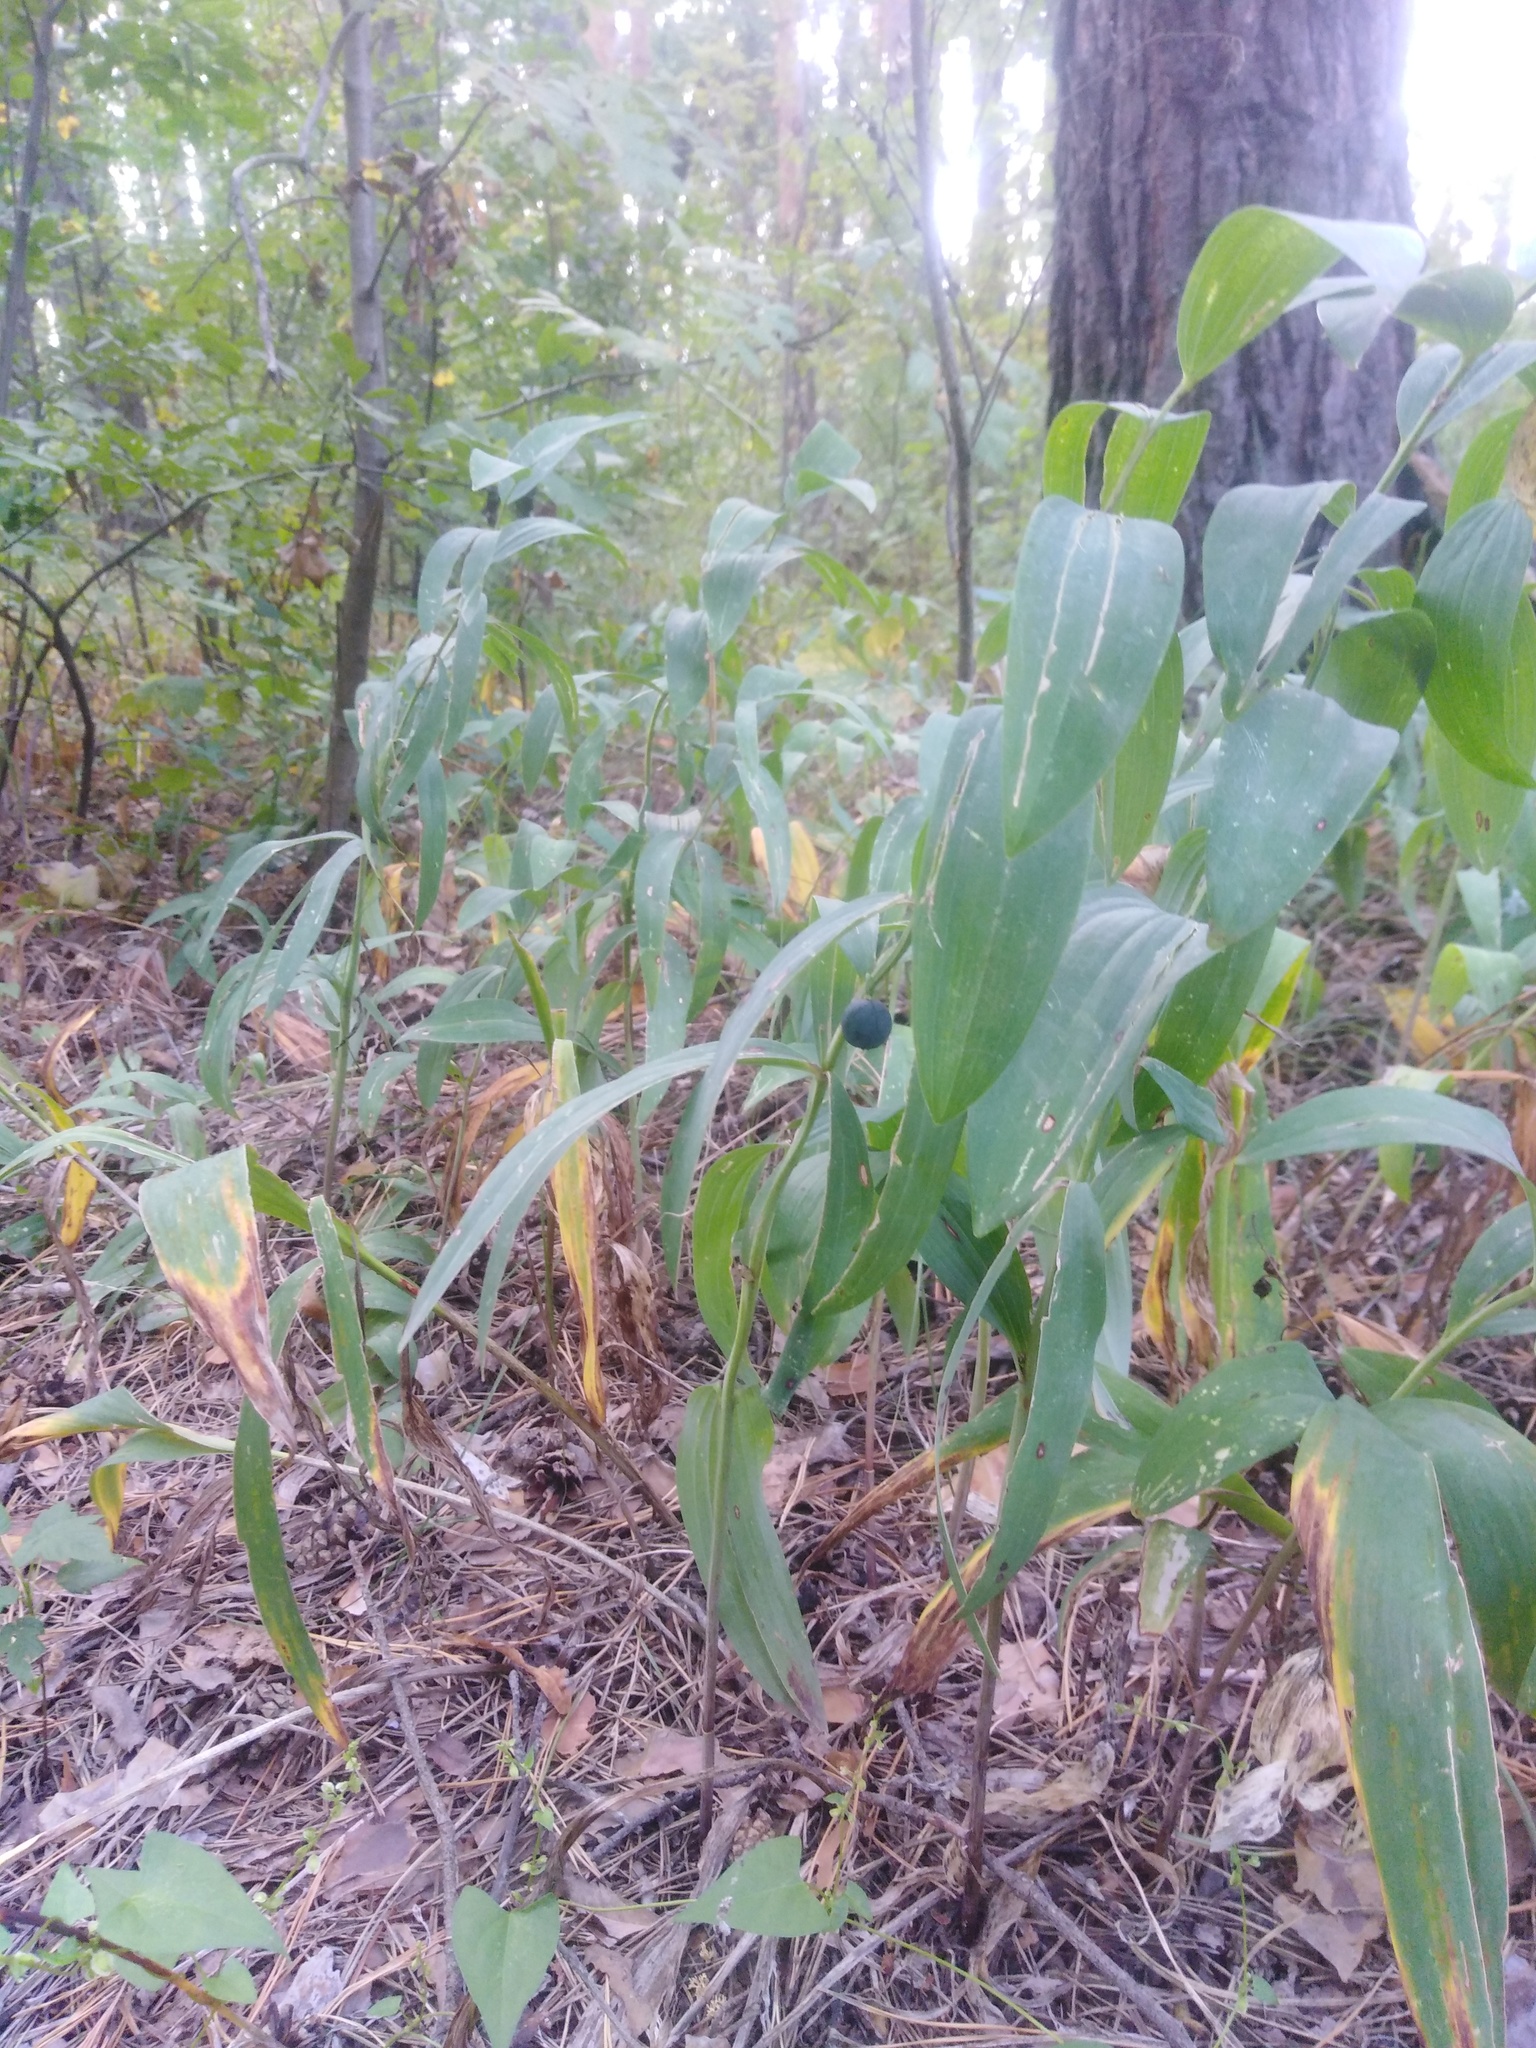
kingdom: Plantae
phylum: Tracheophyta
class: Liliopsida
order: Asparagales
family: Asparagaceae
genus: Polygonatum
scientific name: Polygonatum odoratum
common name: Angular solomon's-seal
